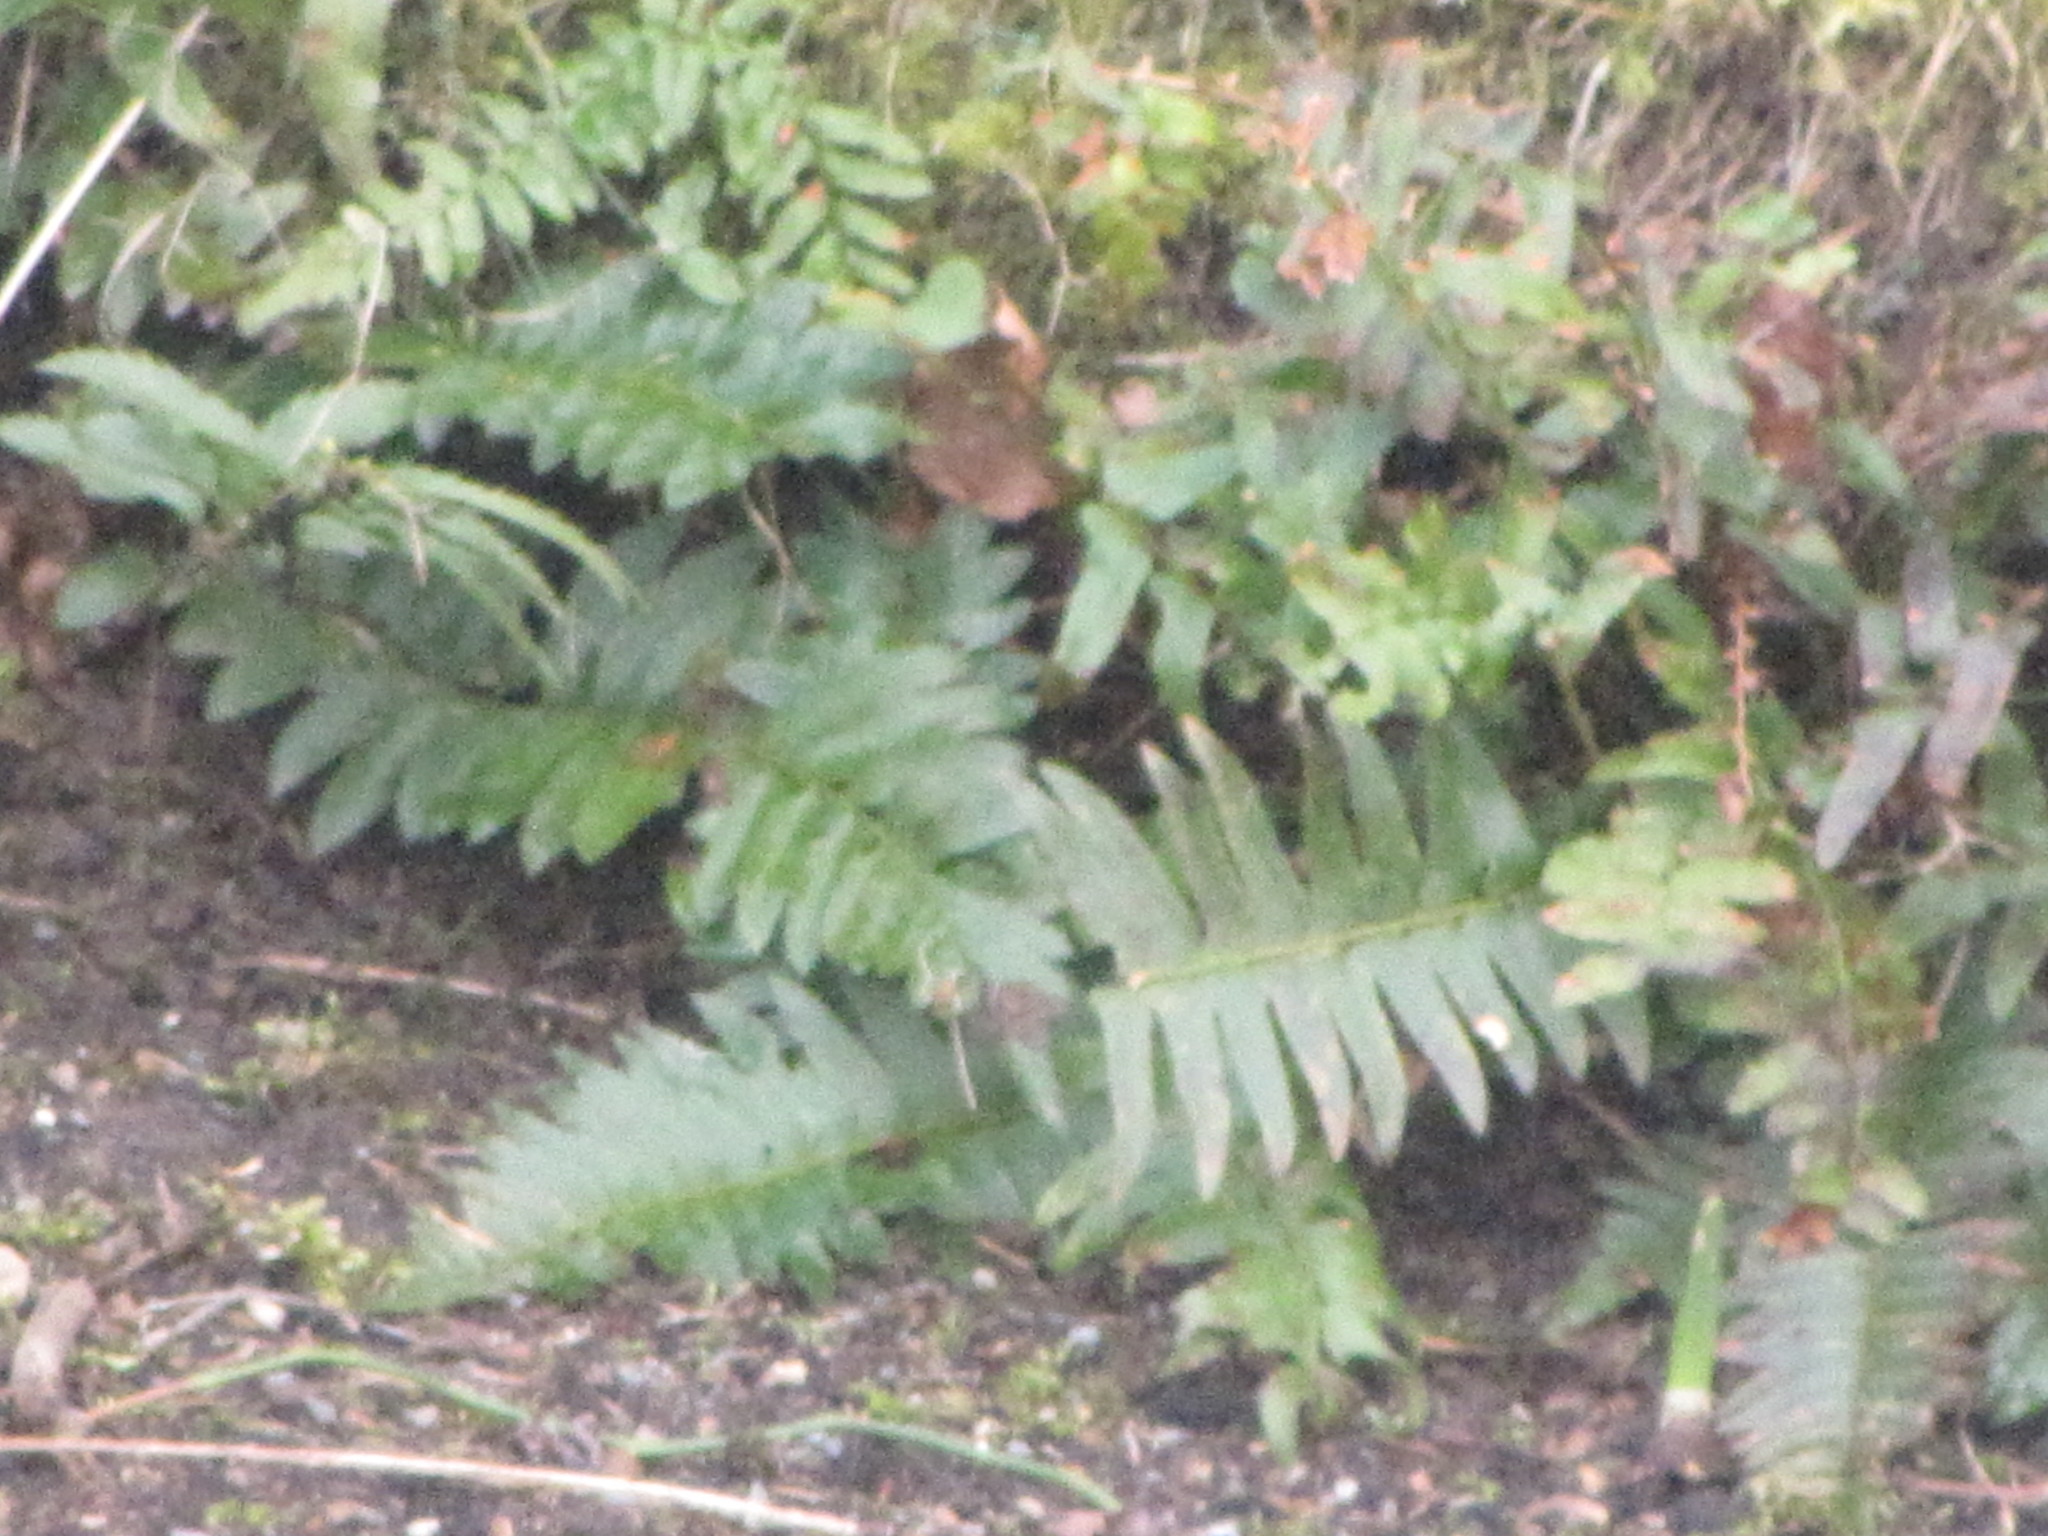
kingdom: Plantae
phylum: Tracheophyta
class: Polypodiopsida
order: Polypodiales
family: Blechnaceae
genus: Struthiopteris
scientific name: Struthiopteris spicant
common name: Deer fern
